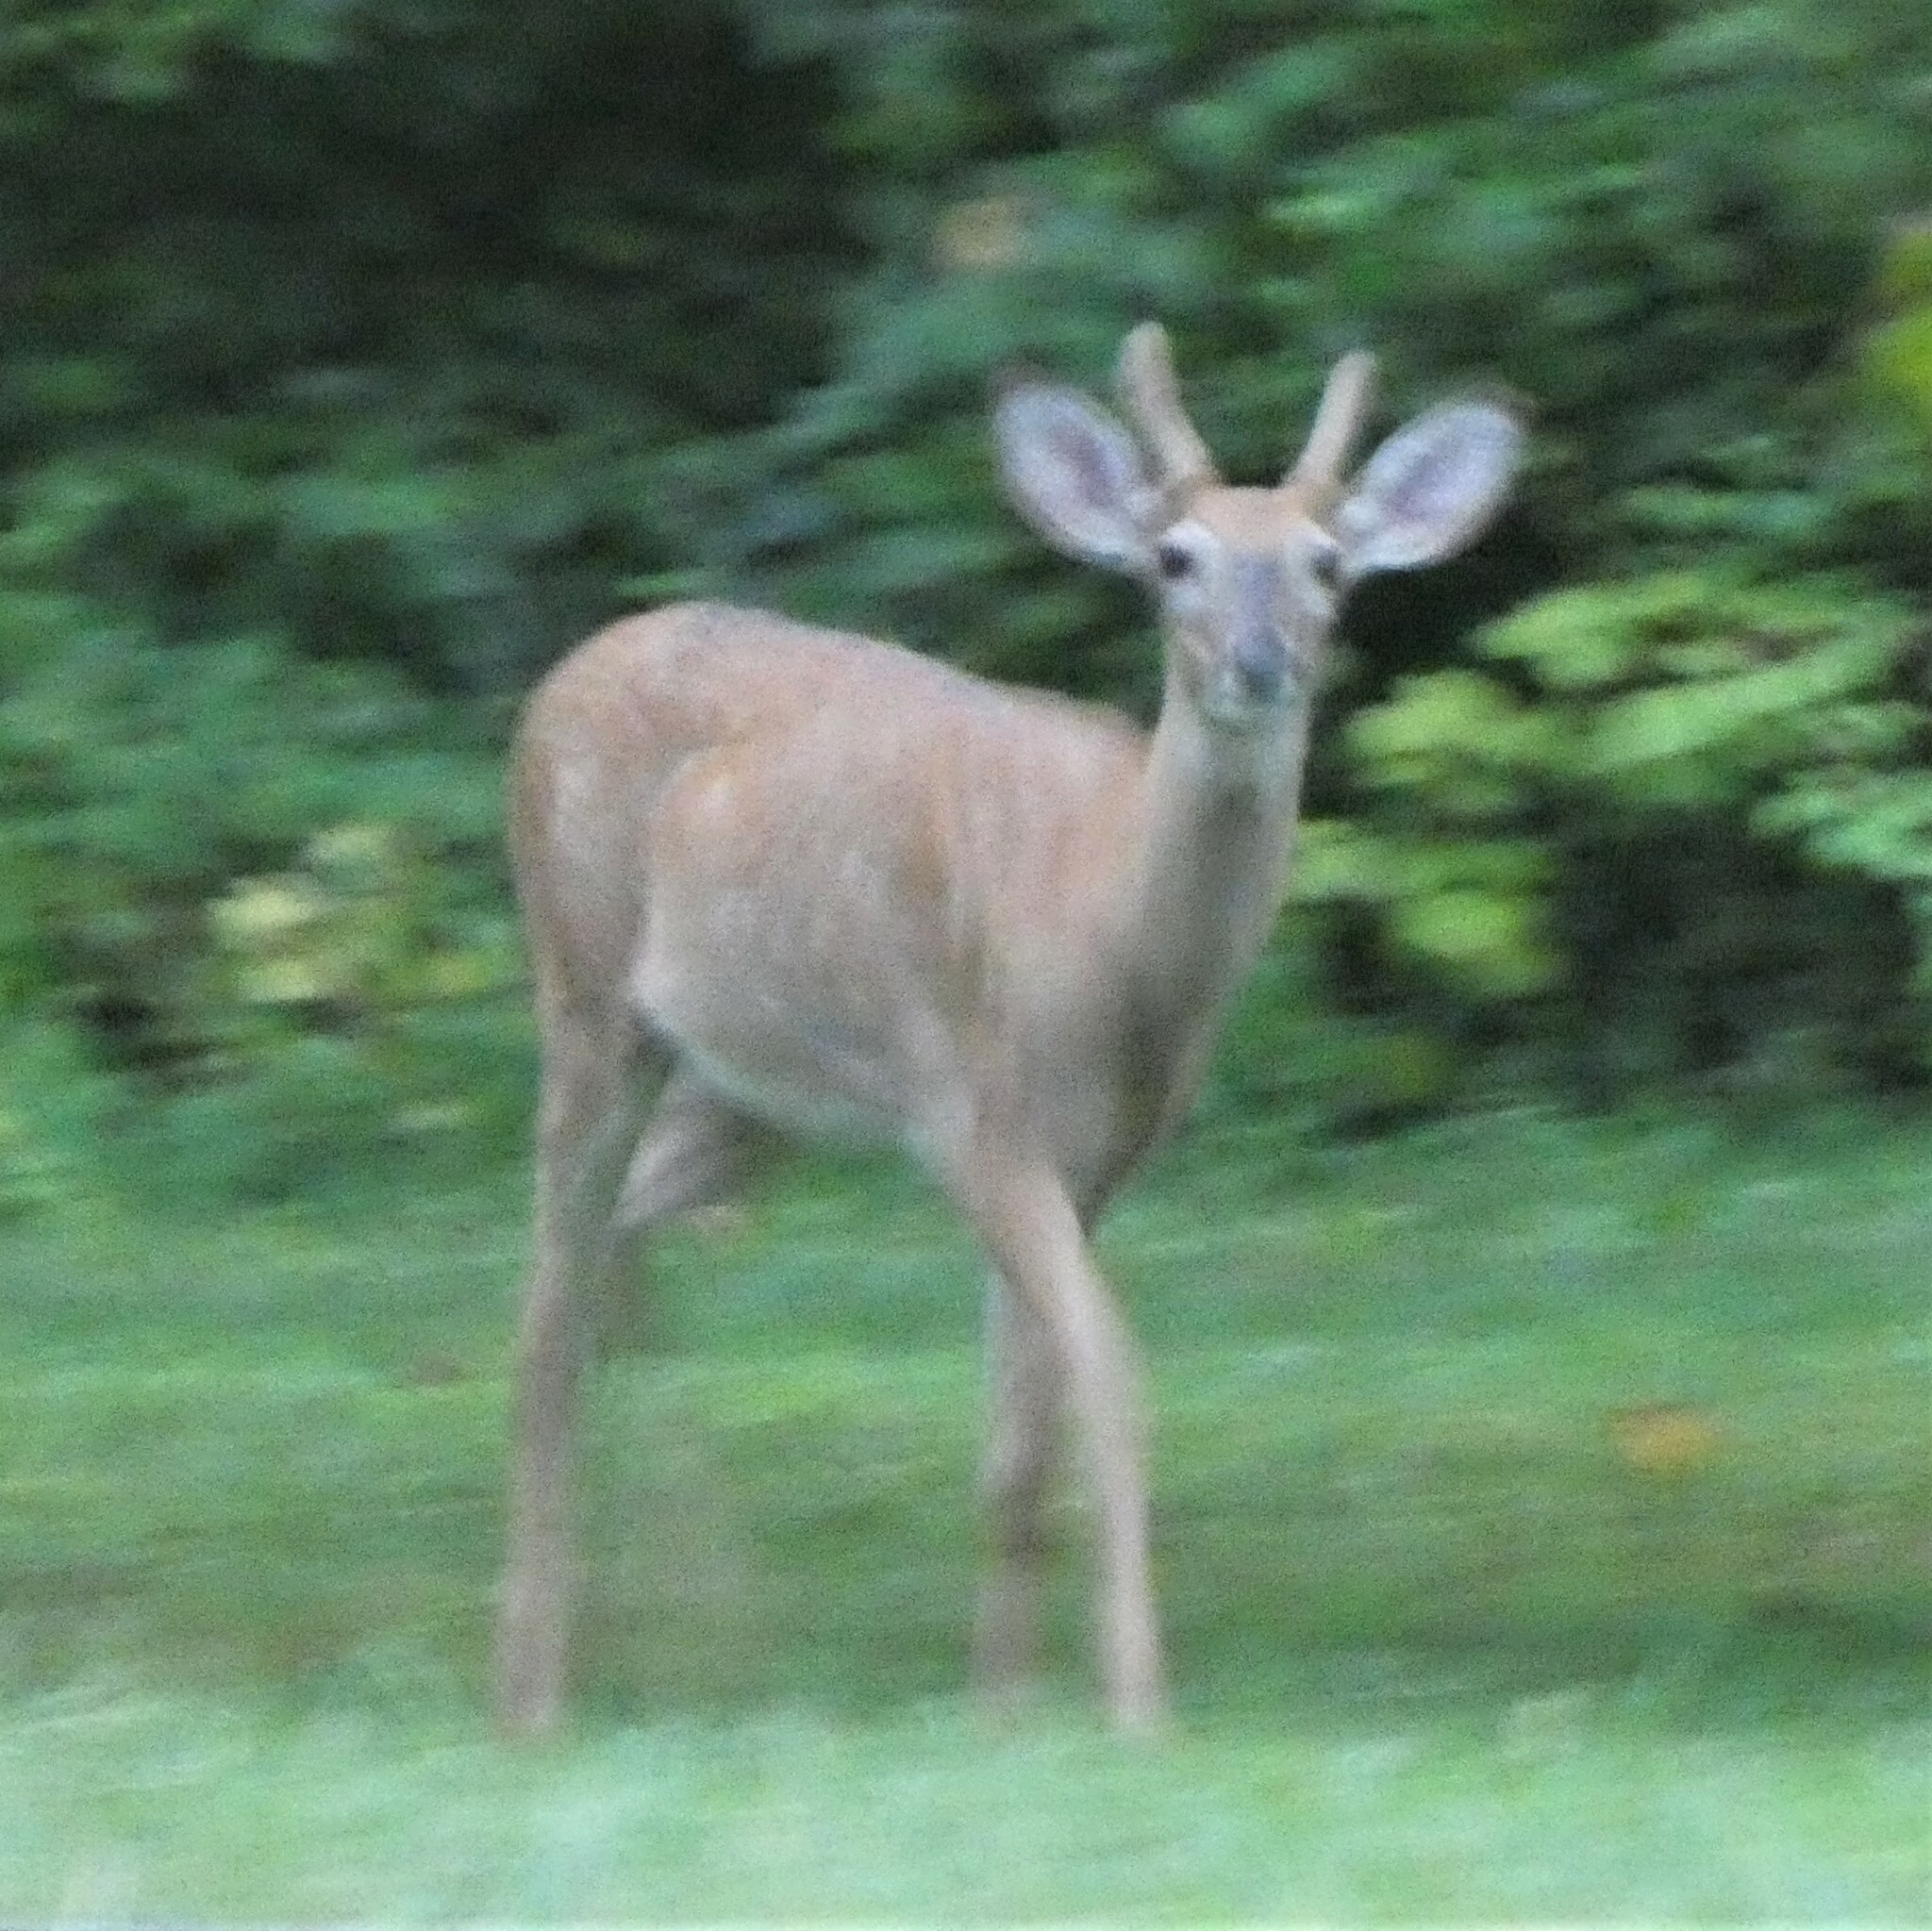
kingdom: Animalia
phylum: Chordata
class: Mammalia
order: Artiodactyla
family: Cervidae
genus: Odocoileus
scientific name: Odocoileus virginianus
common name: White-tailed deer
